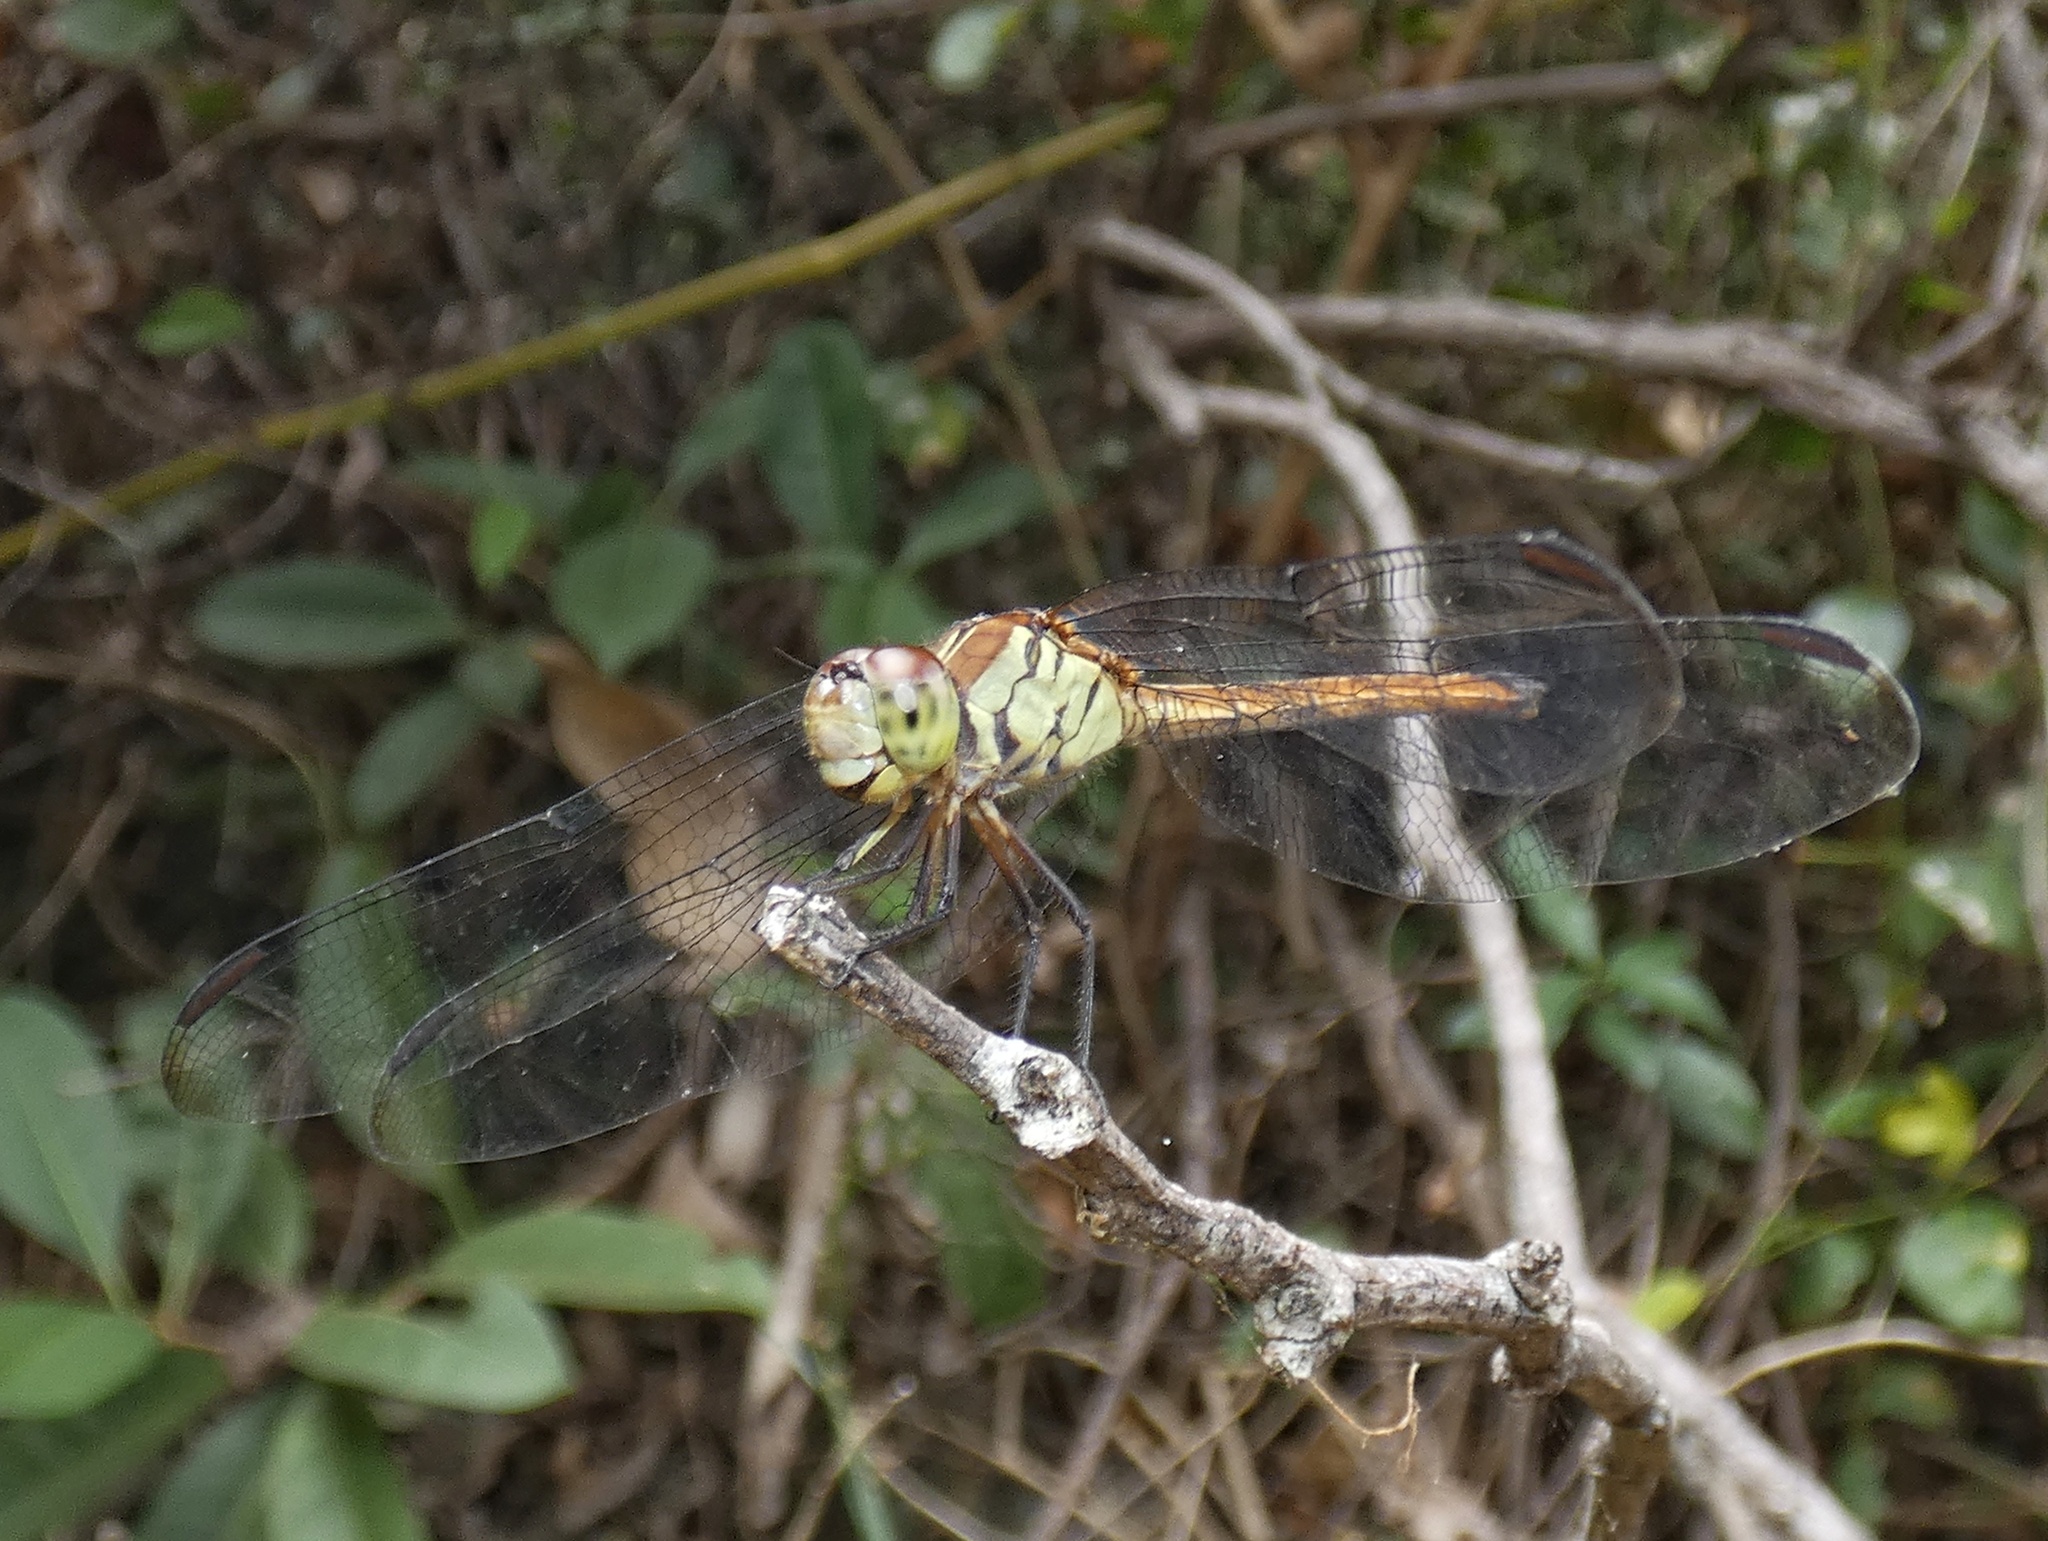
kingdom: Animalia
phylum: Arthropoda
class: Insecta
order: Odonata
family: Libellulidae
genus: Lathrecista
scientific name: Lathrecista asiatica
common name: Scarlet grenadier
